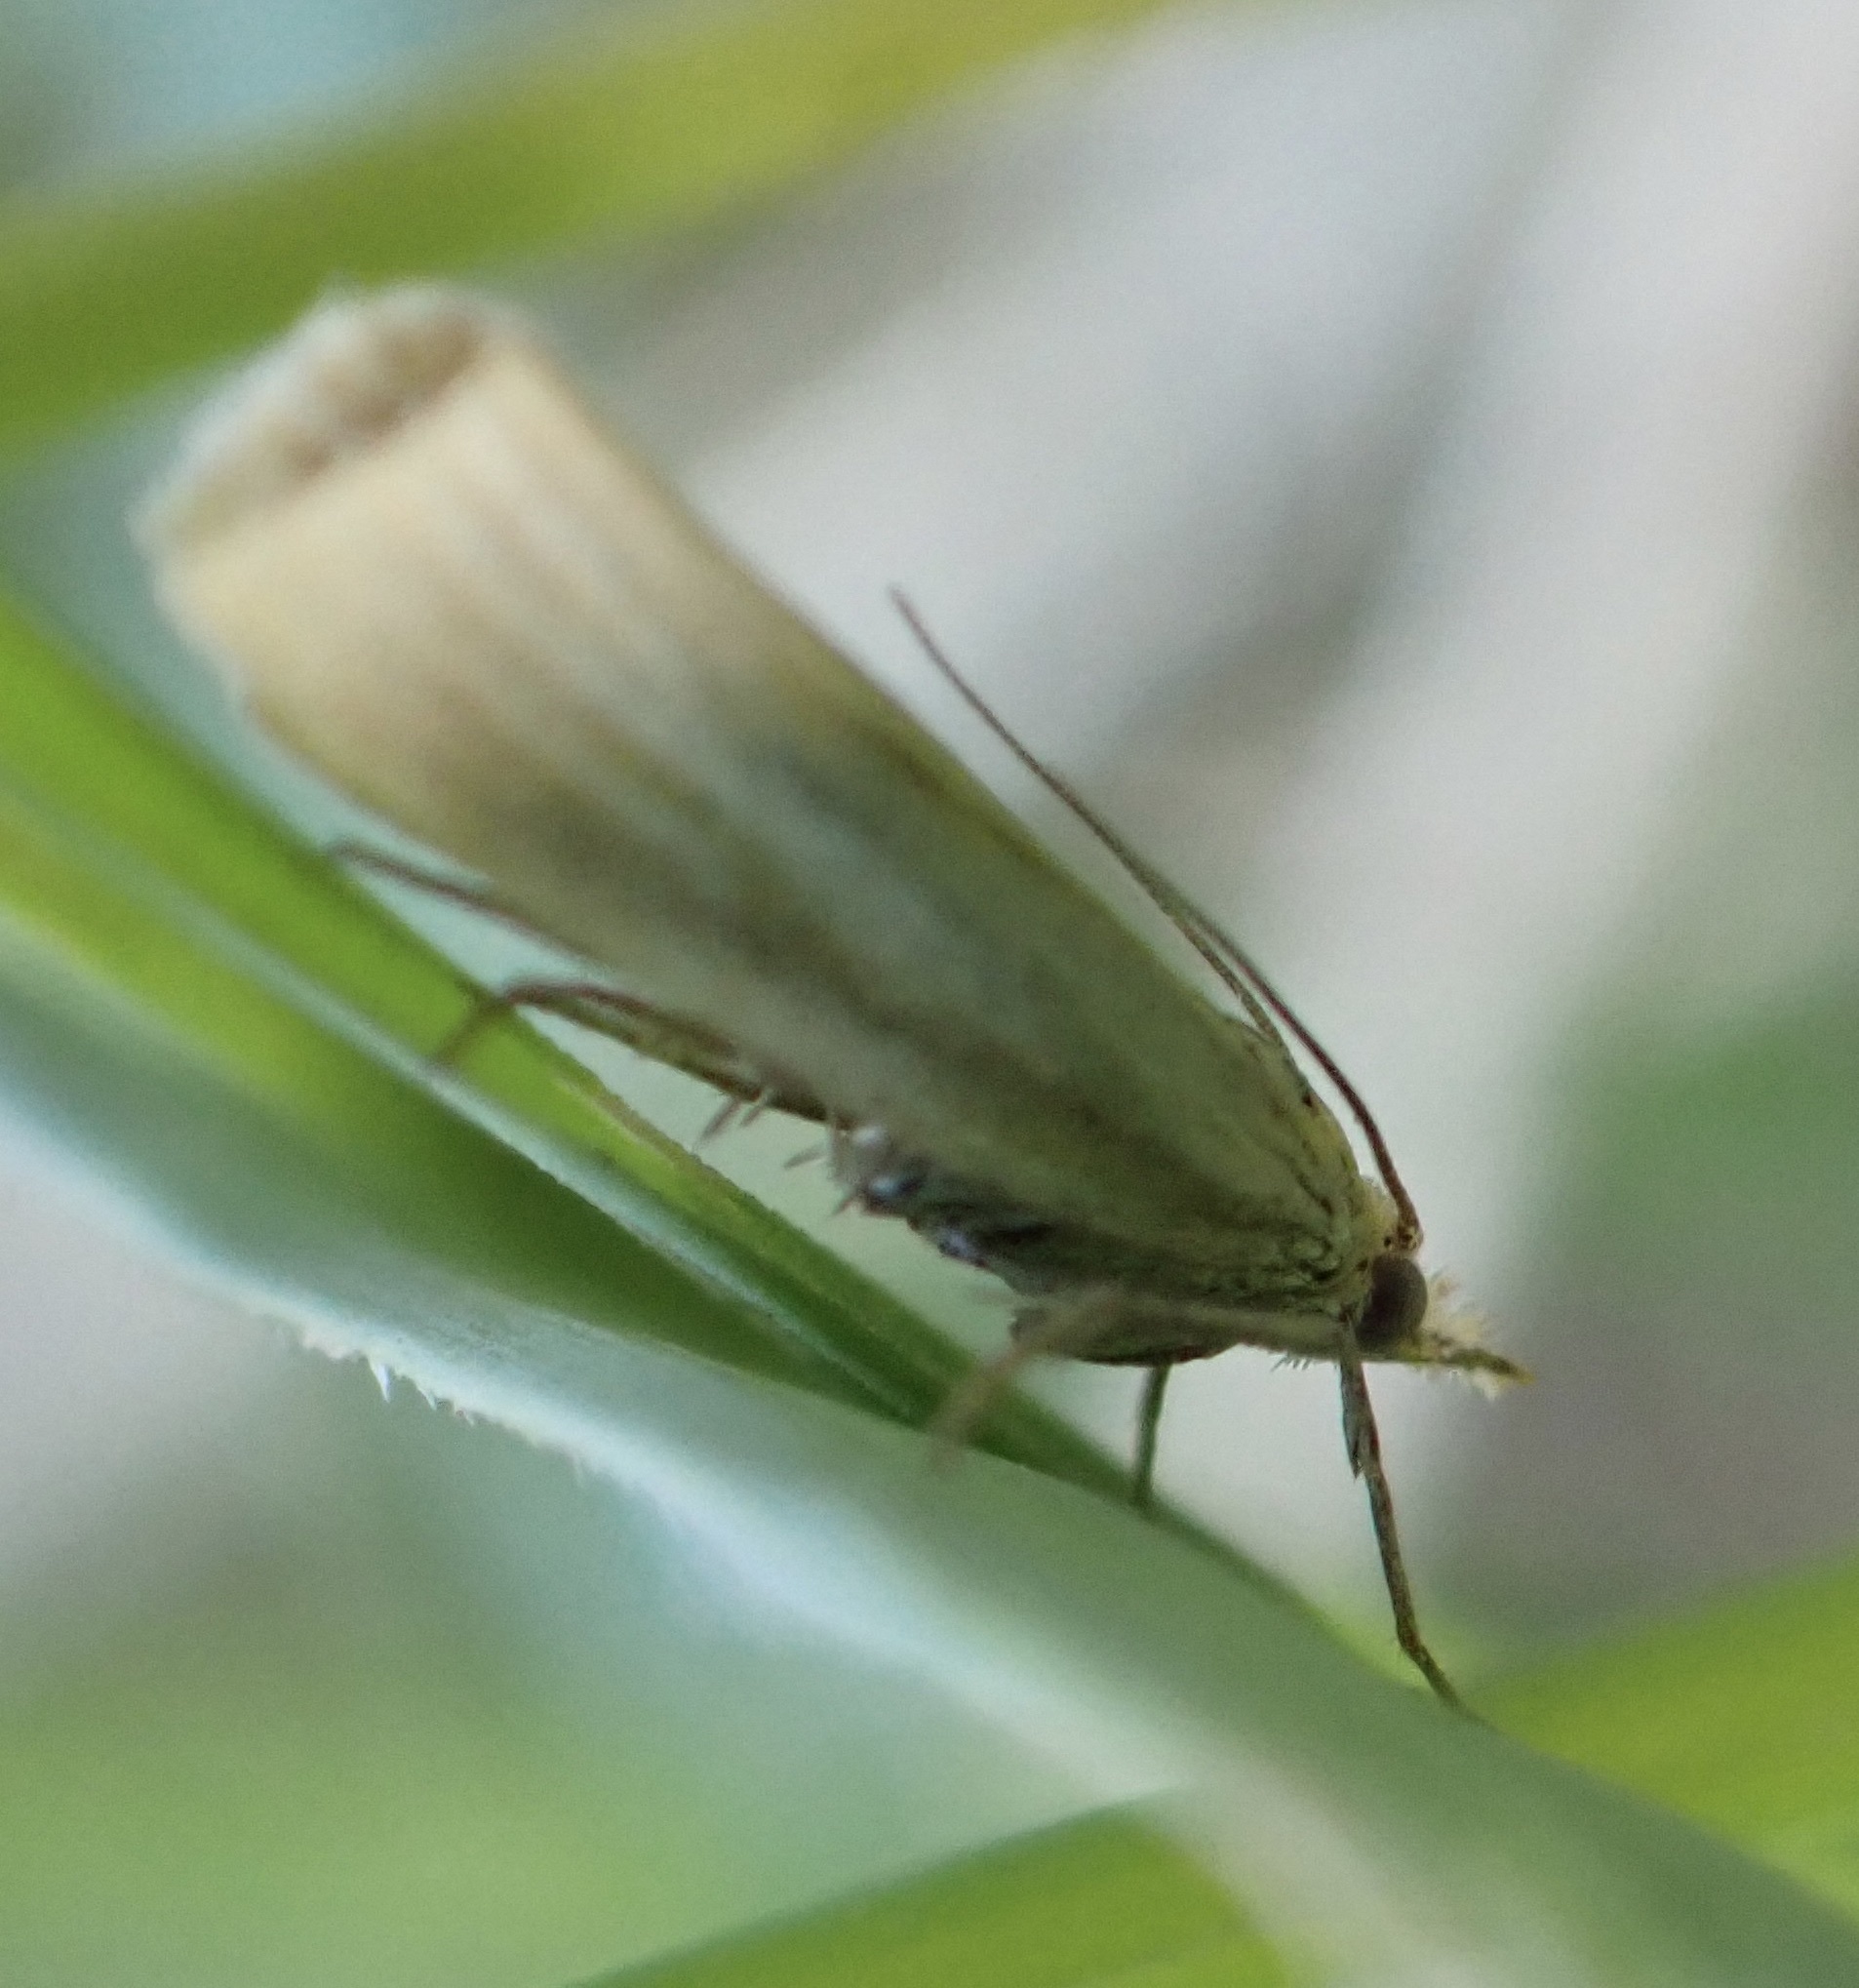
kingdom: Animalia
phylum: Arthropoda
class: Insecta
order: Lepidoptera
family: Crambidae
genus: Pediasia
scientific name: Pediasia luteella
